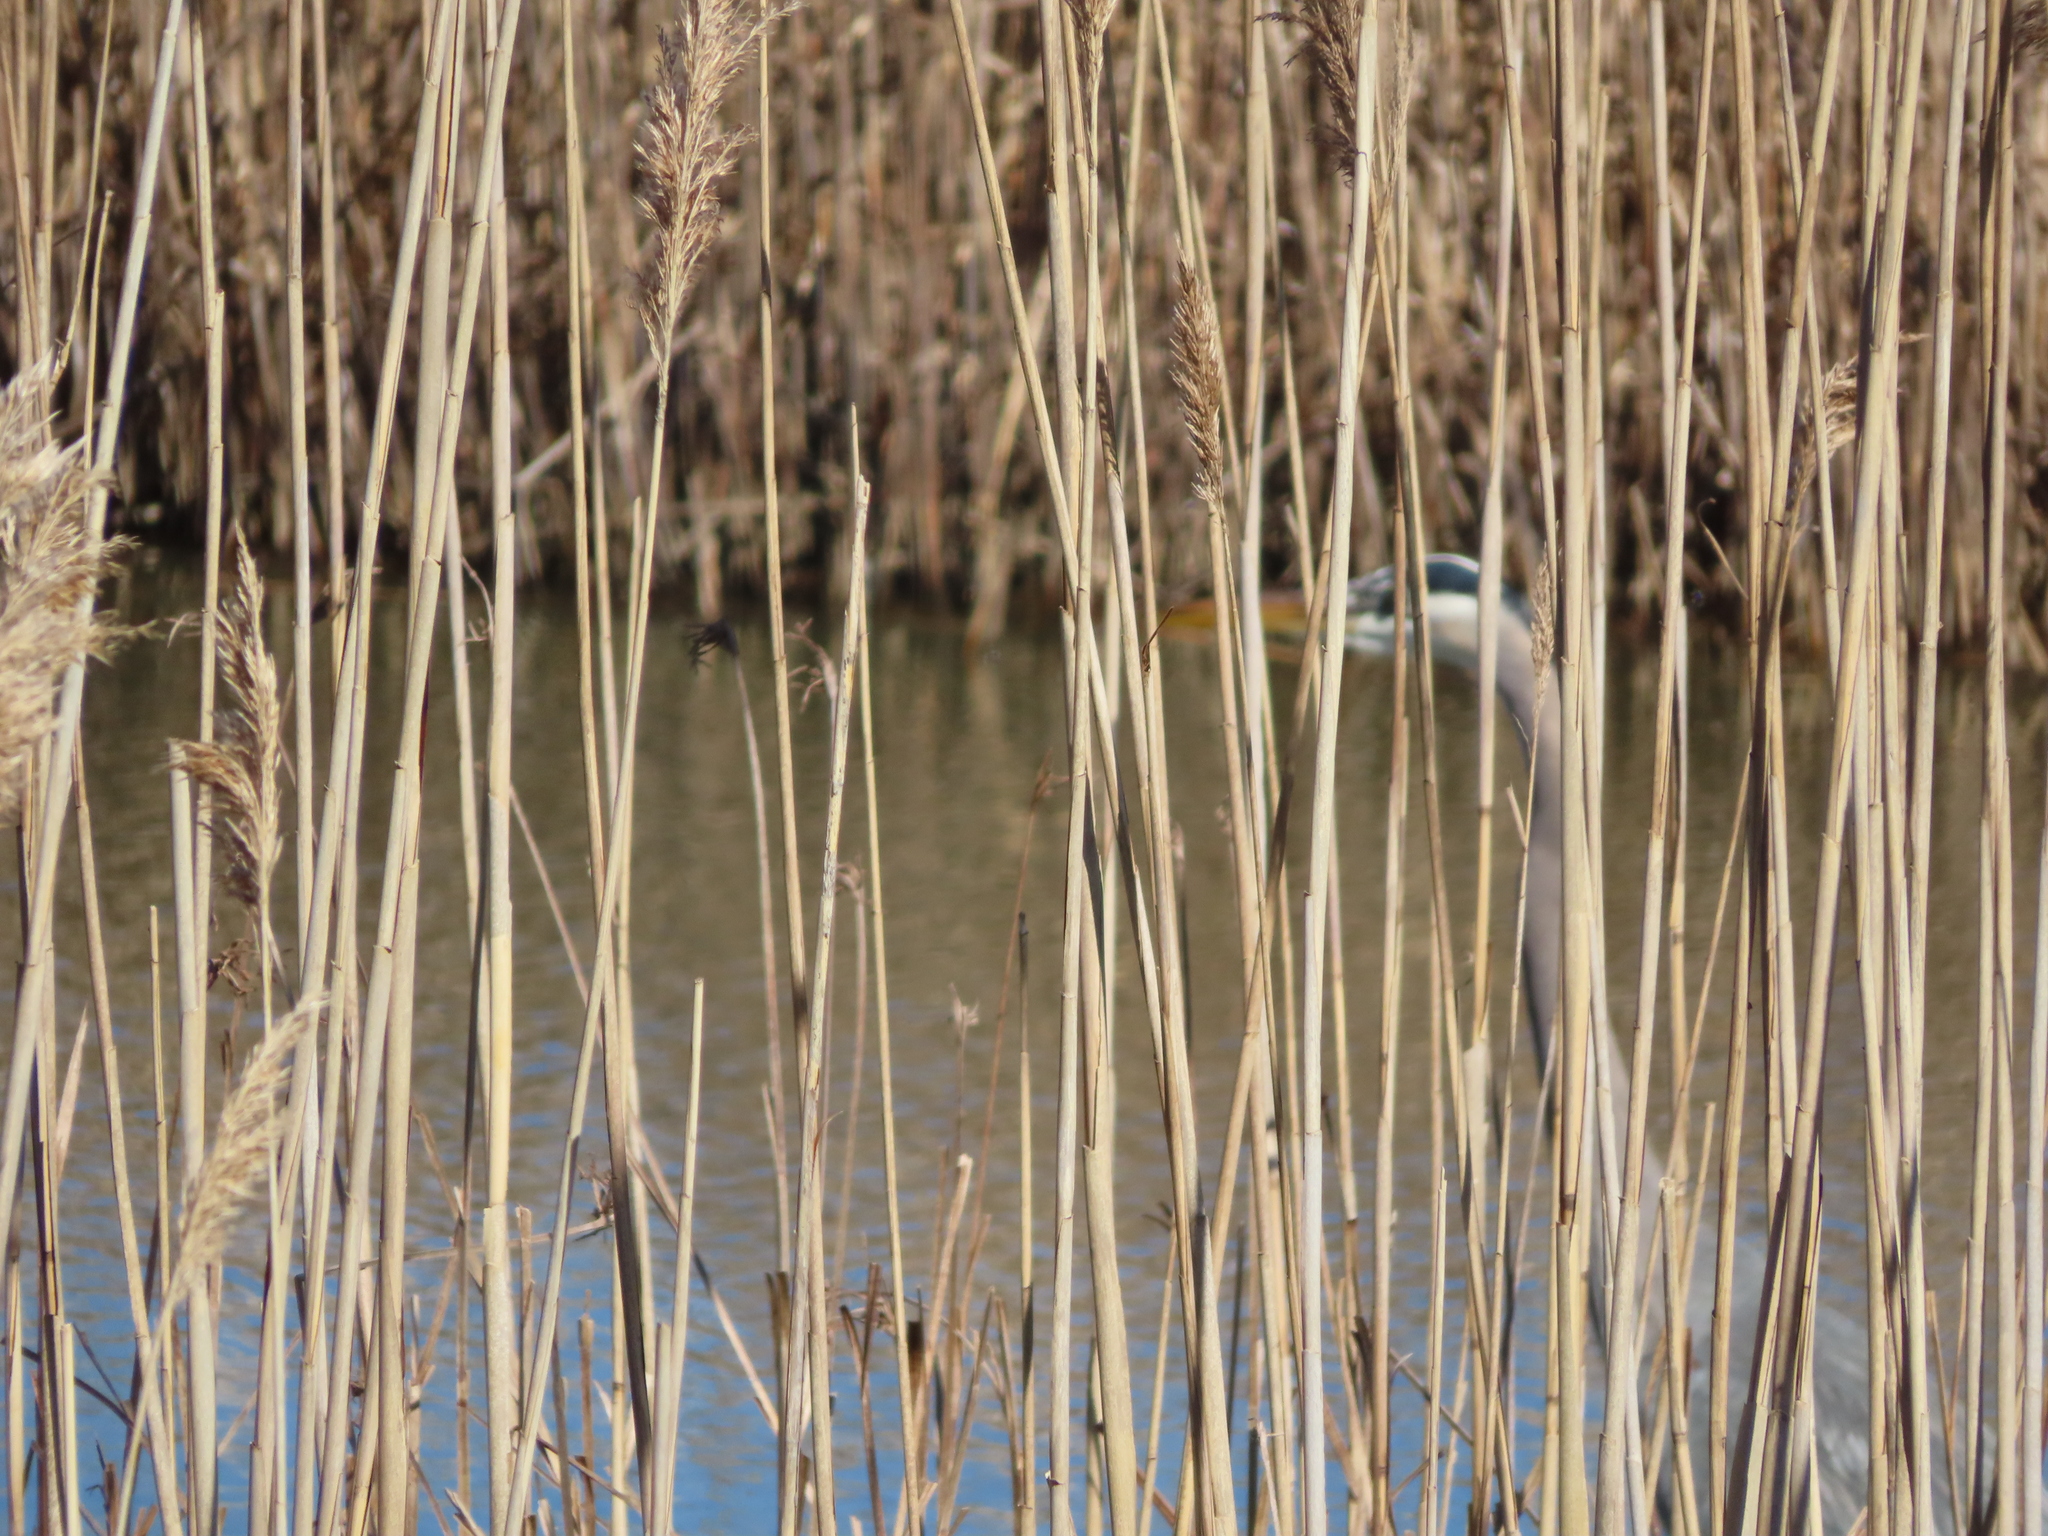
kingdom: Animalia
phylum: Chordata
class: Aves
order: Pelecaniformes
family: Ardeidae
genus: Ardea
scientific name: Ardea herodias
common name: Great blue heron
